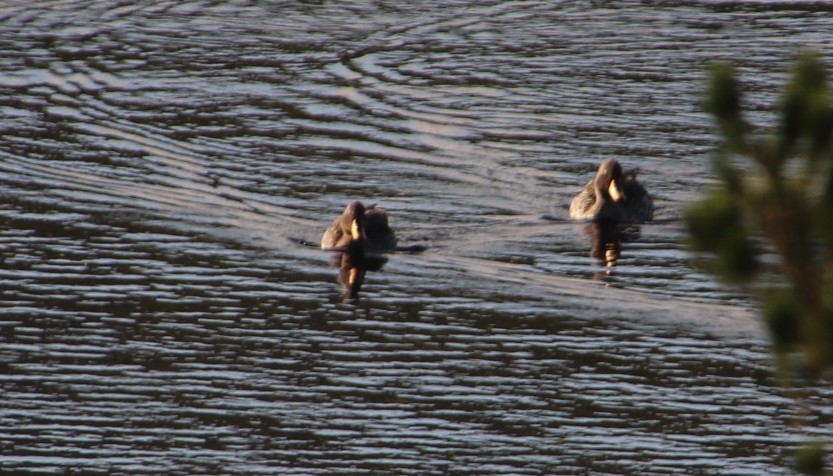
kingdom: Animalia
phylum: Chordata
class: Aves
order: Anseriformes
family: Anatidae
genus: Anas
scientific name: Anas undulata
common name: Yellow-billed duck
